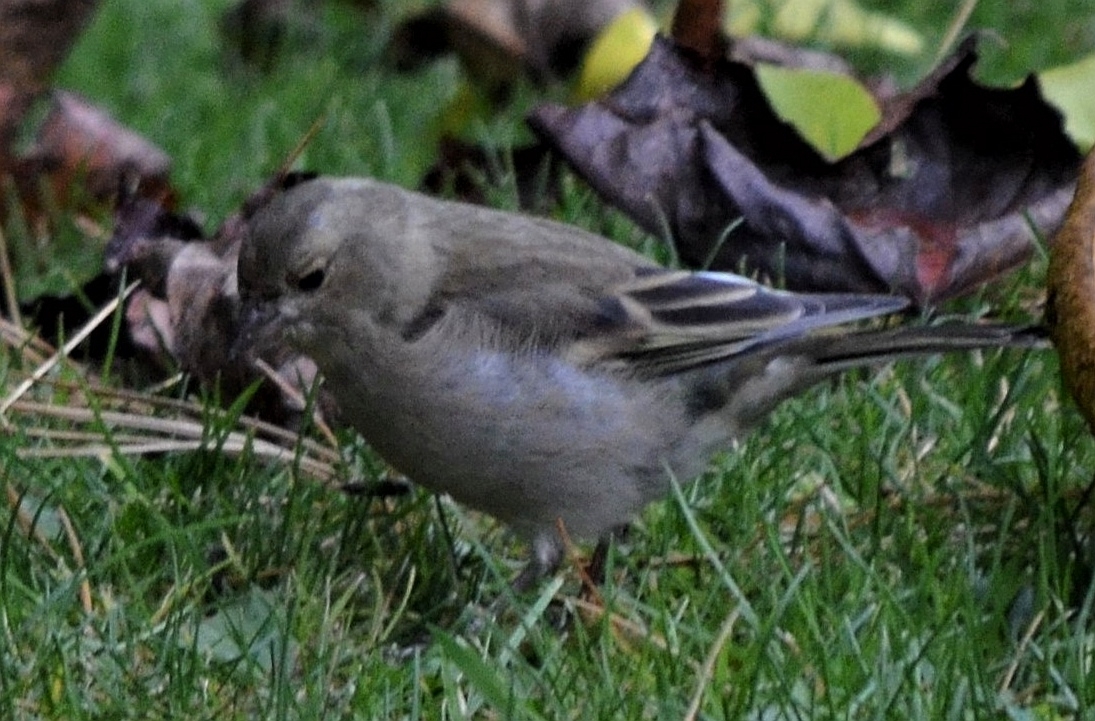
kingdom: Animalia
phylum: Chordata
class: Aves
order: Passeriformes
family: Fringillidae
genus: Fringilla
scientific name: Fringilla coelebs
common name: Common chaffinch
